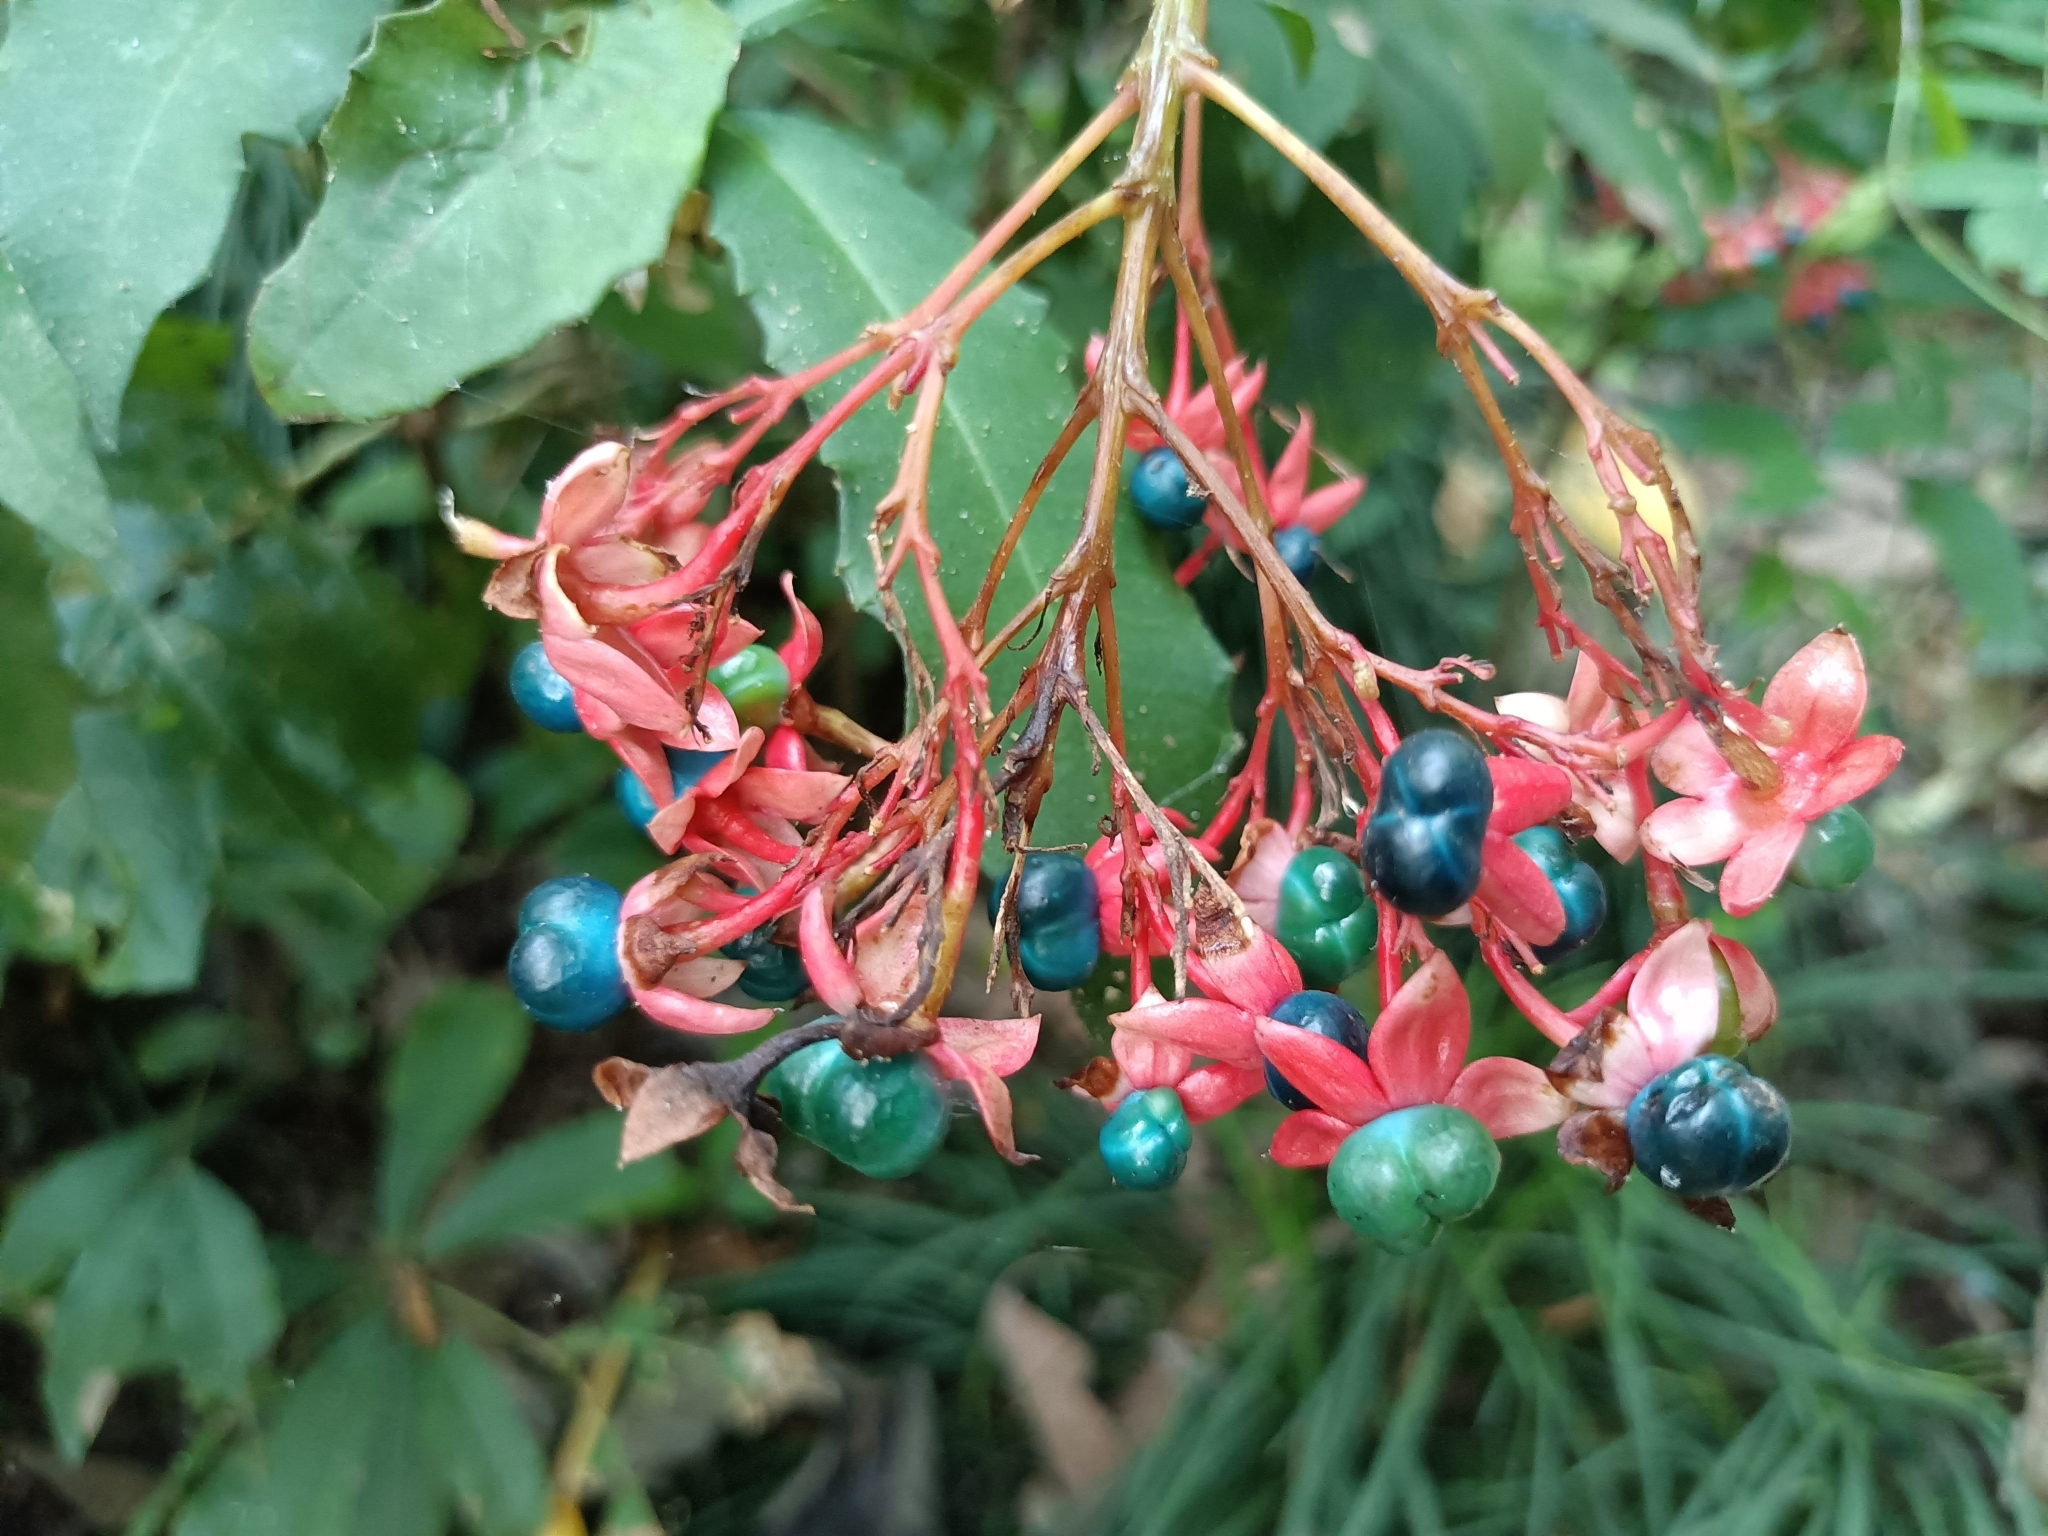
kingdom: Plantae
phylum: Tracheophyta
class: Magnoliopsida
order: Lamiales
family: Lamiaceae
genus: Clerodendrum
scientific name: Clerodendrum japonicum
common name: Japanese glorybower
